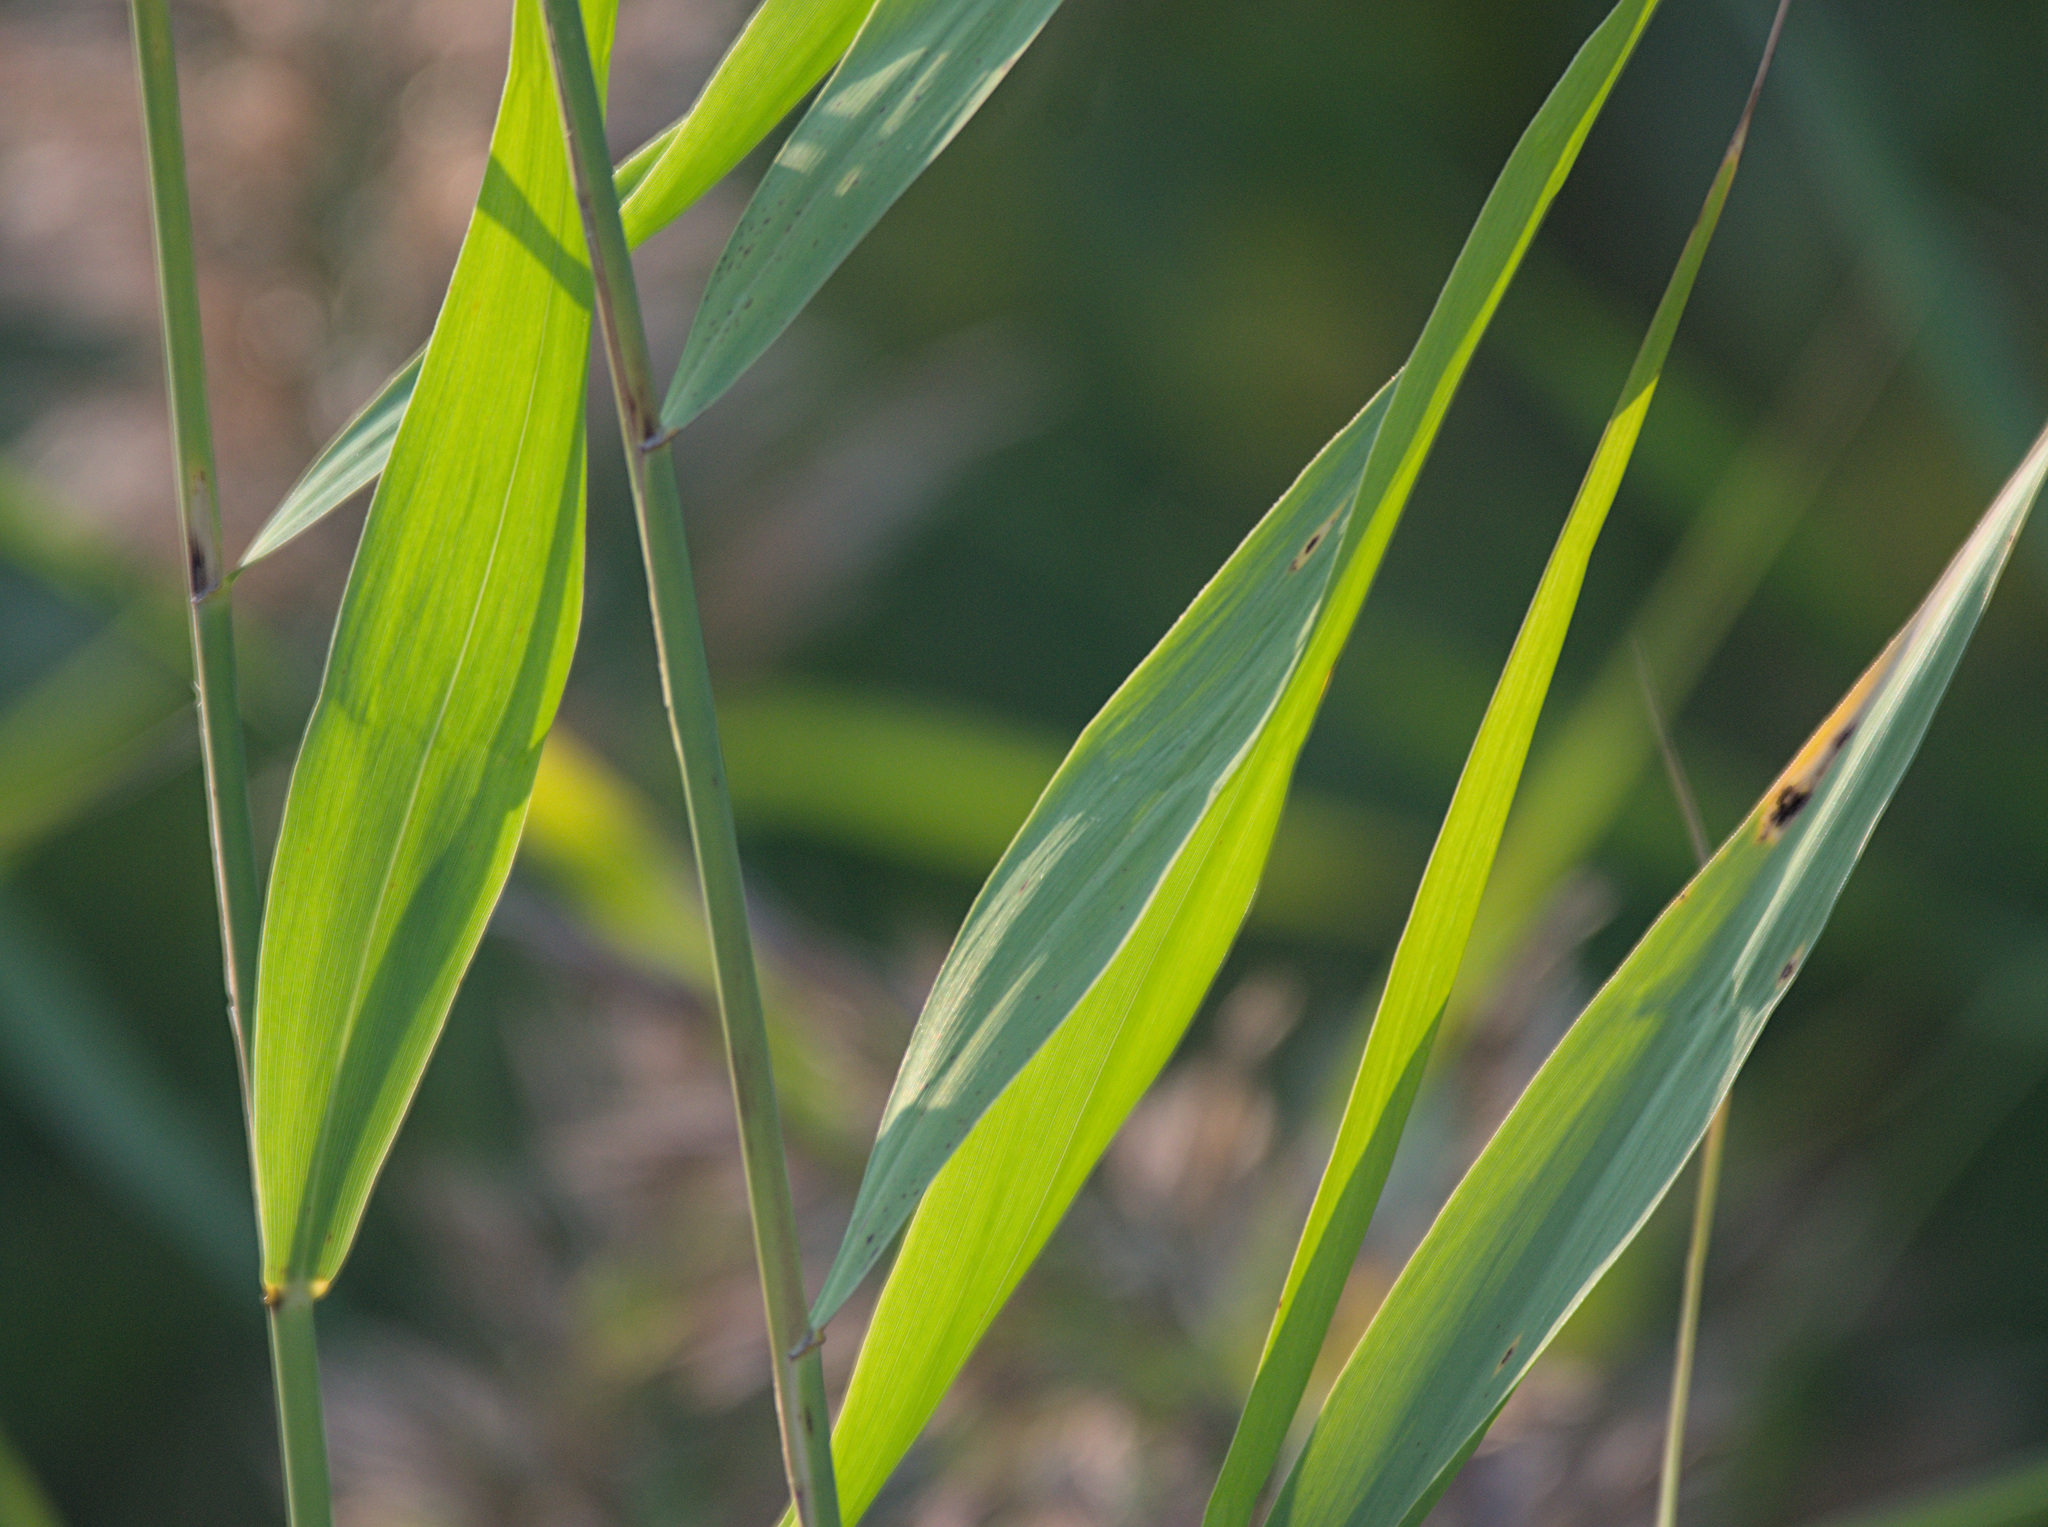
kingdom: Plantae
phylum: Tracheophyta
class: Liliopsida
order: Poales
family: Poaceae
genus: Phragmites
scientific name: Phragmites australis
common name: Common reed
